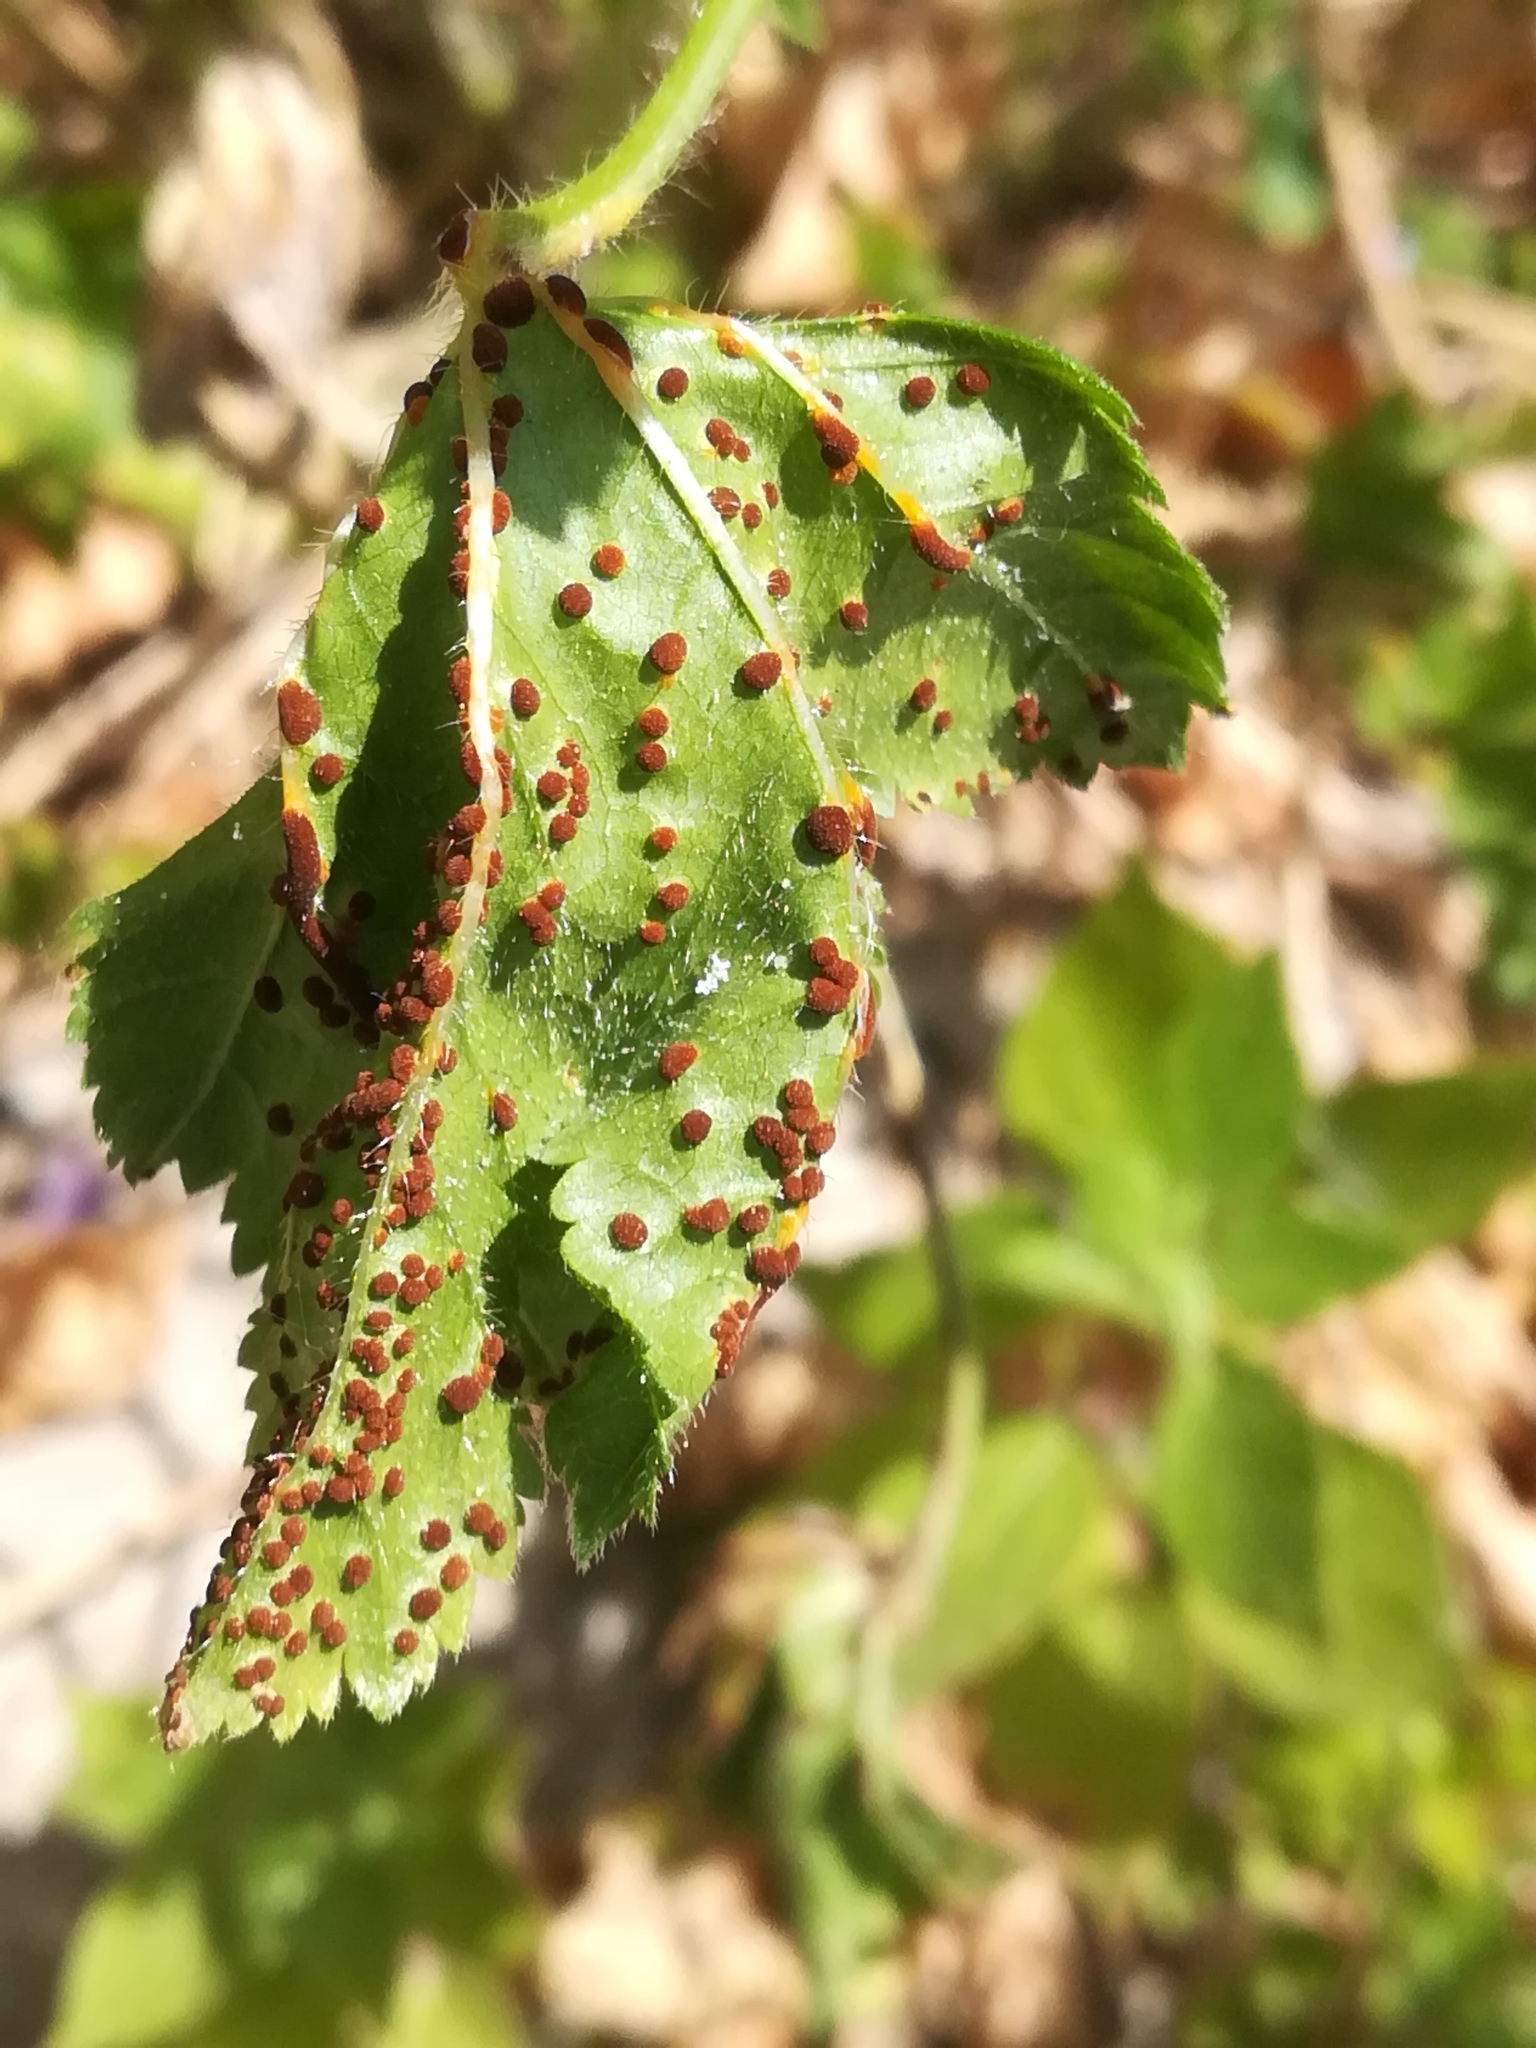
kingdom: Fungi
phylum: Basidiomycota
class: Pucciniomycetes
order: Pucciniales
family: Pucciniaceae
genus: Puccinia
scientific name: Puccinia malvacearum
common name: Hollyhock rust
